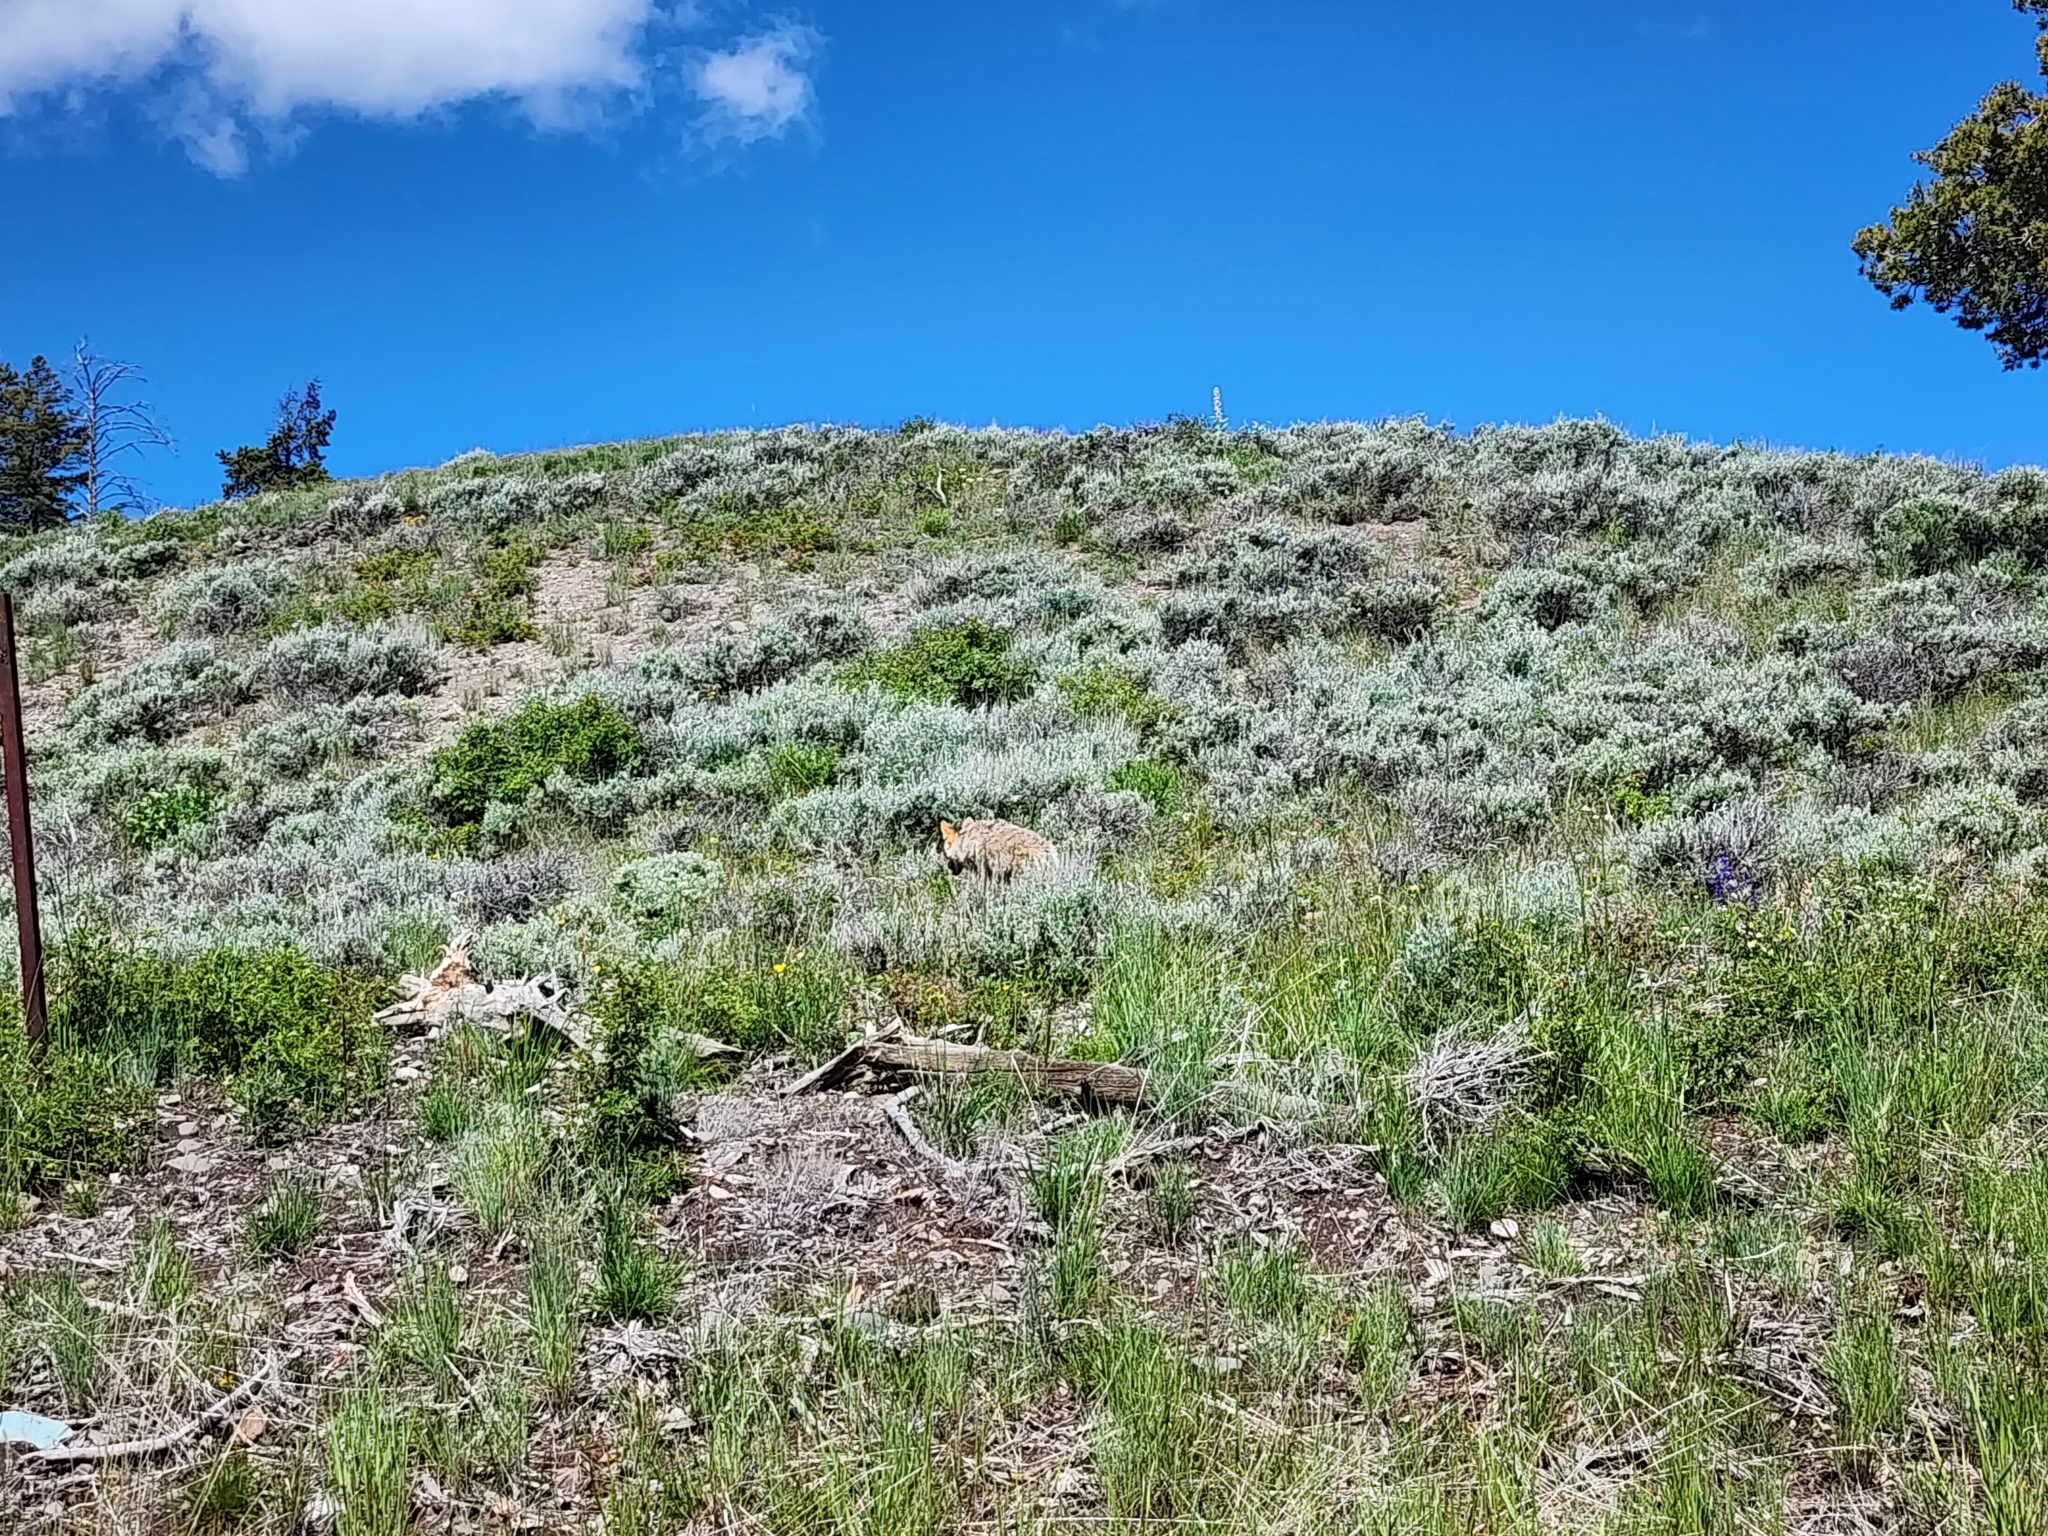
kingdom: Animalia
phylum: Chordata
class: Mammalia
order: Carnivora
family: Canidae
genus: Canis
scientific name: Canis latrans
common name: Coyote
